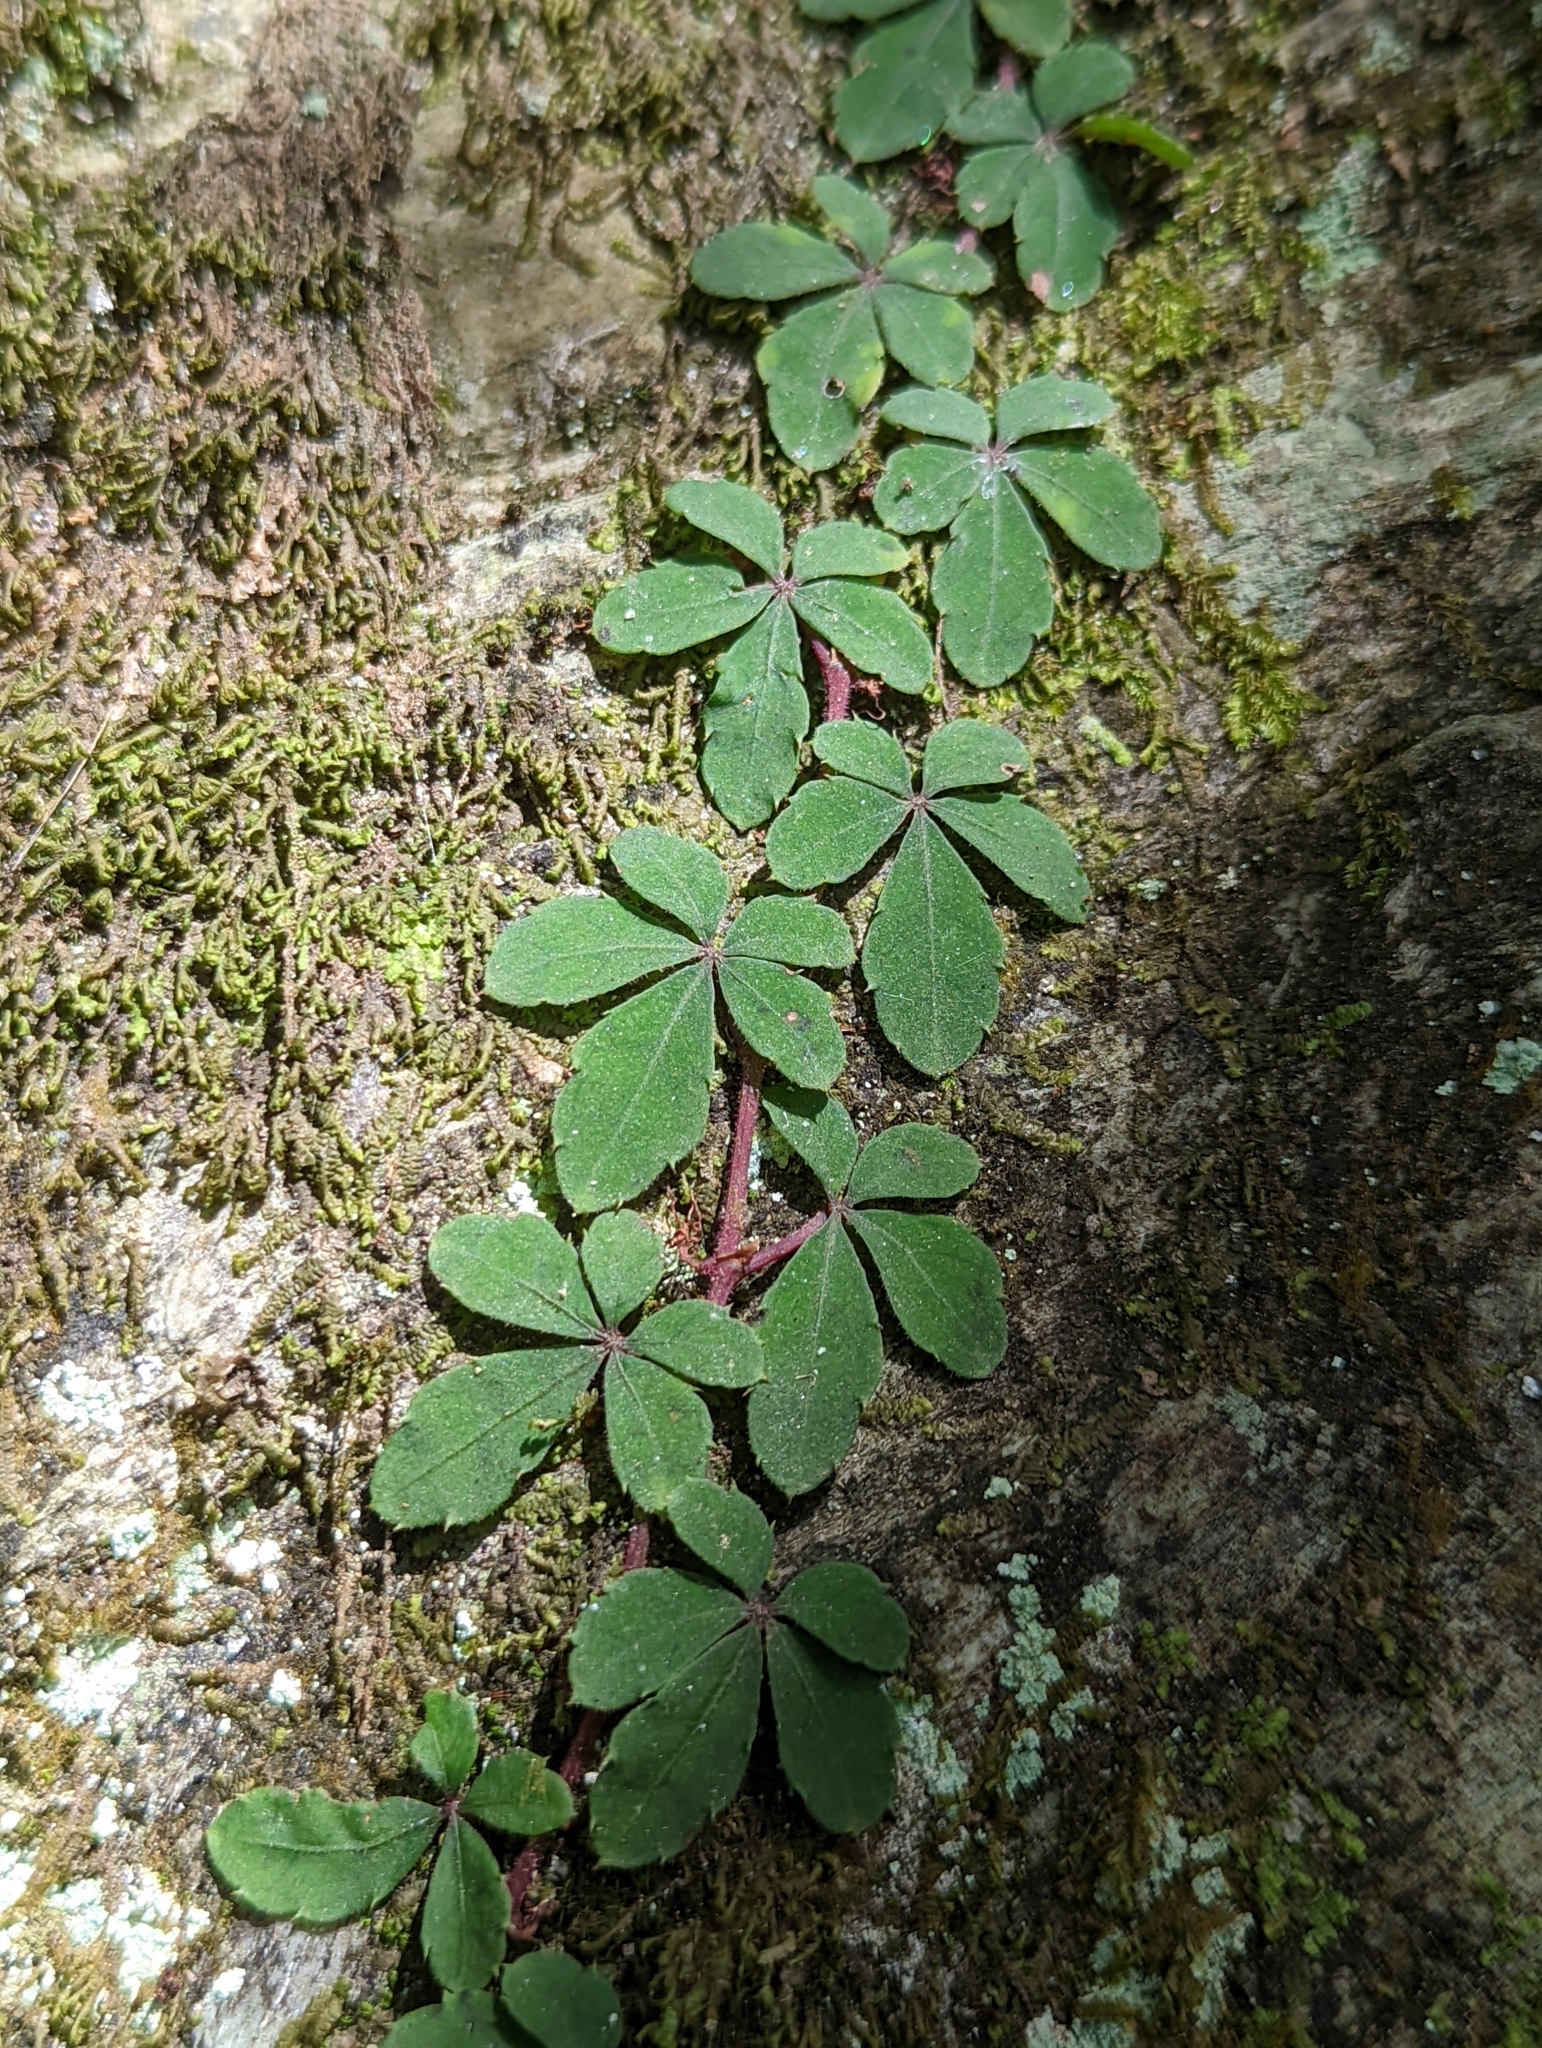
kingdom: Plantae
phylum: Tracheophyta
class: Magnoliopsida
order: Vitales
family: Vitaceae
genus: Tetrastigma
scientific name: Tetrastigma obtectum
